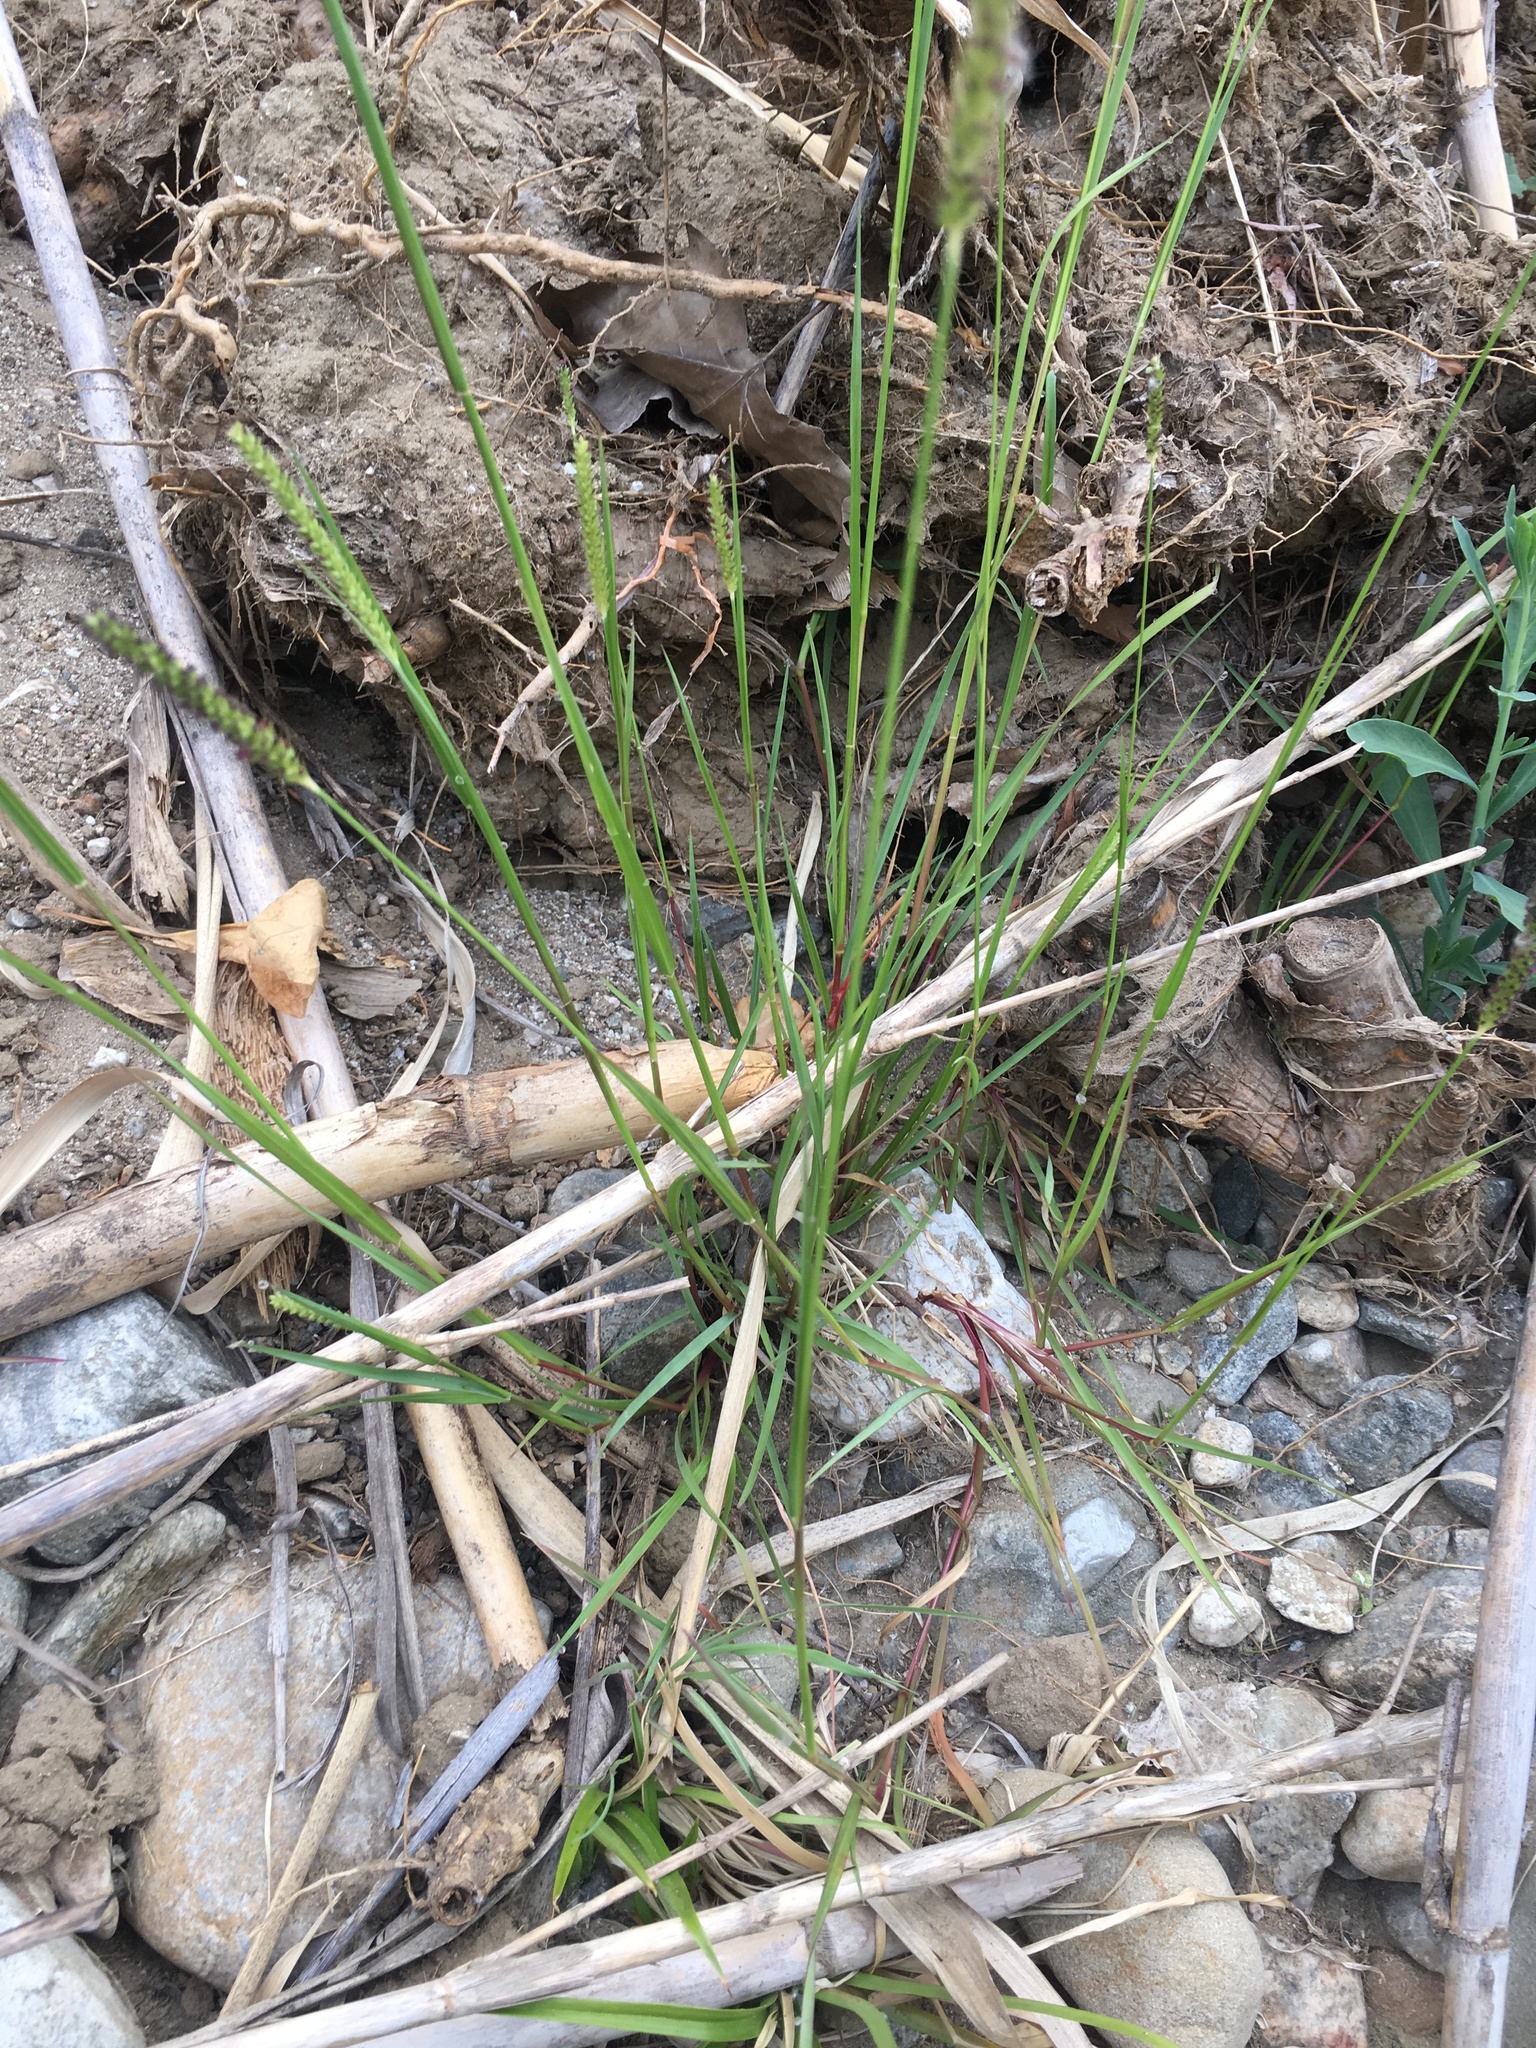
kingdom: Plantae
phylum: Tracheophyta
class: Liliopsida
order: Poales
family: Poaceae
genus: Setaria
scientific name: Setaria parviflora
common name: Knotroot bristle-grass
